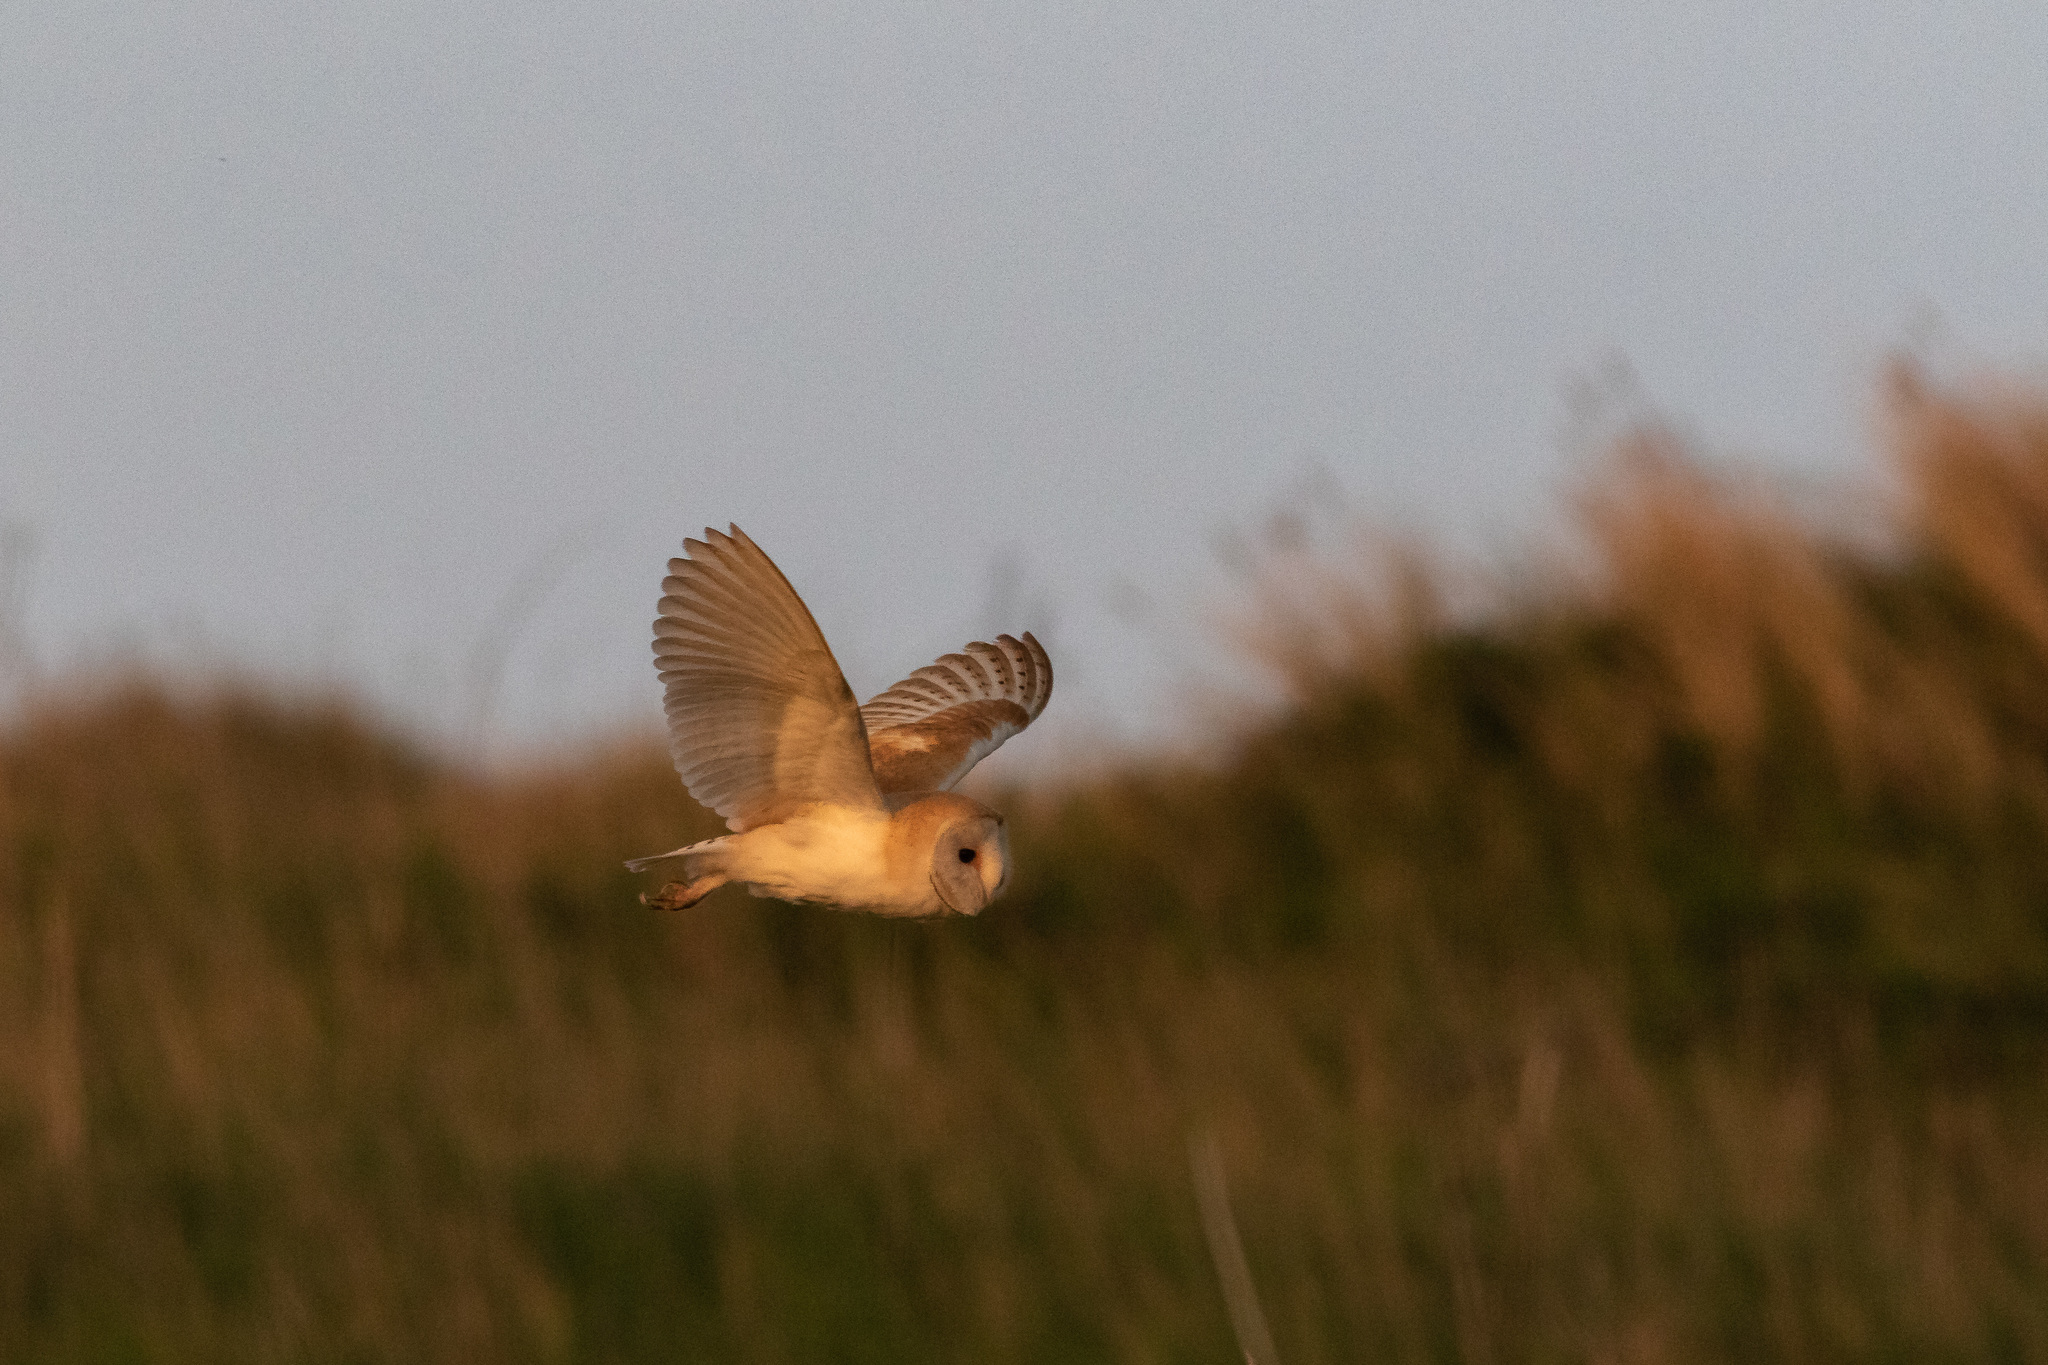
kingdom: Animalia
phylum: Chordata
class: Aves
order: Strigiformes
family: Tytonidae
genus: Tyto
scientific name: Tyto alba
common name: Barn owl
